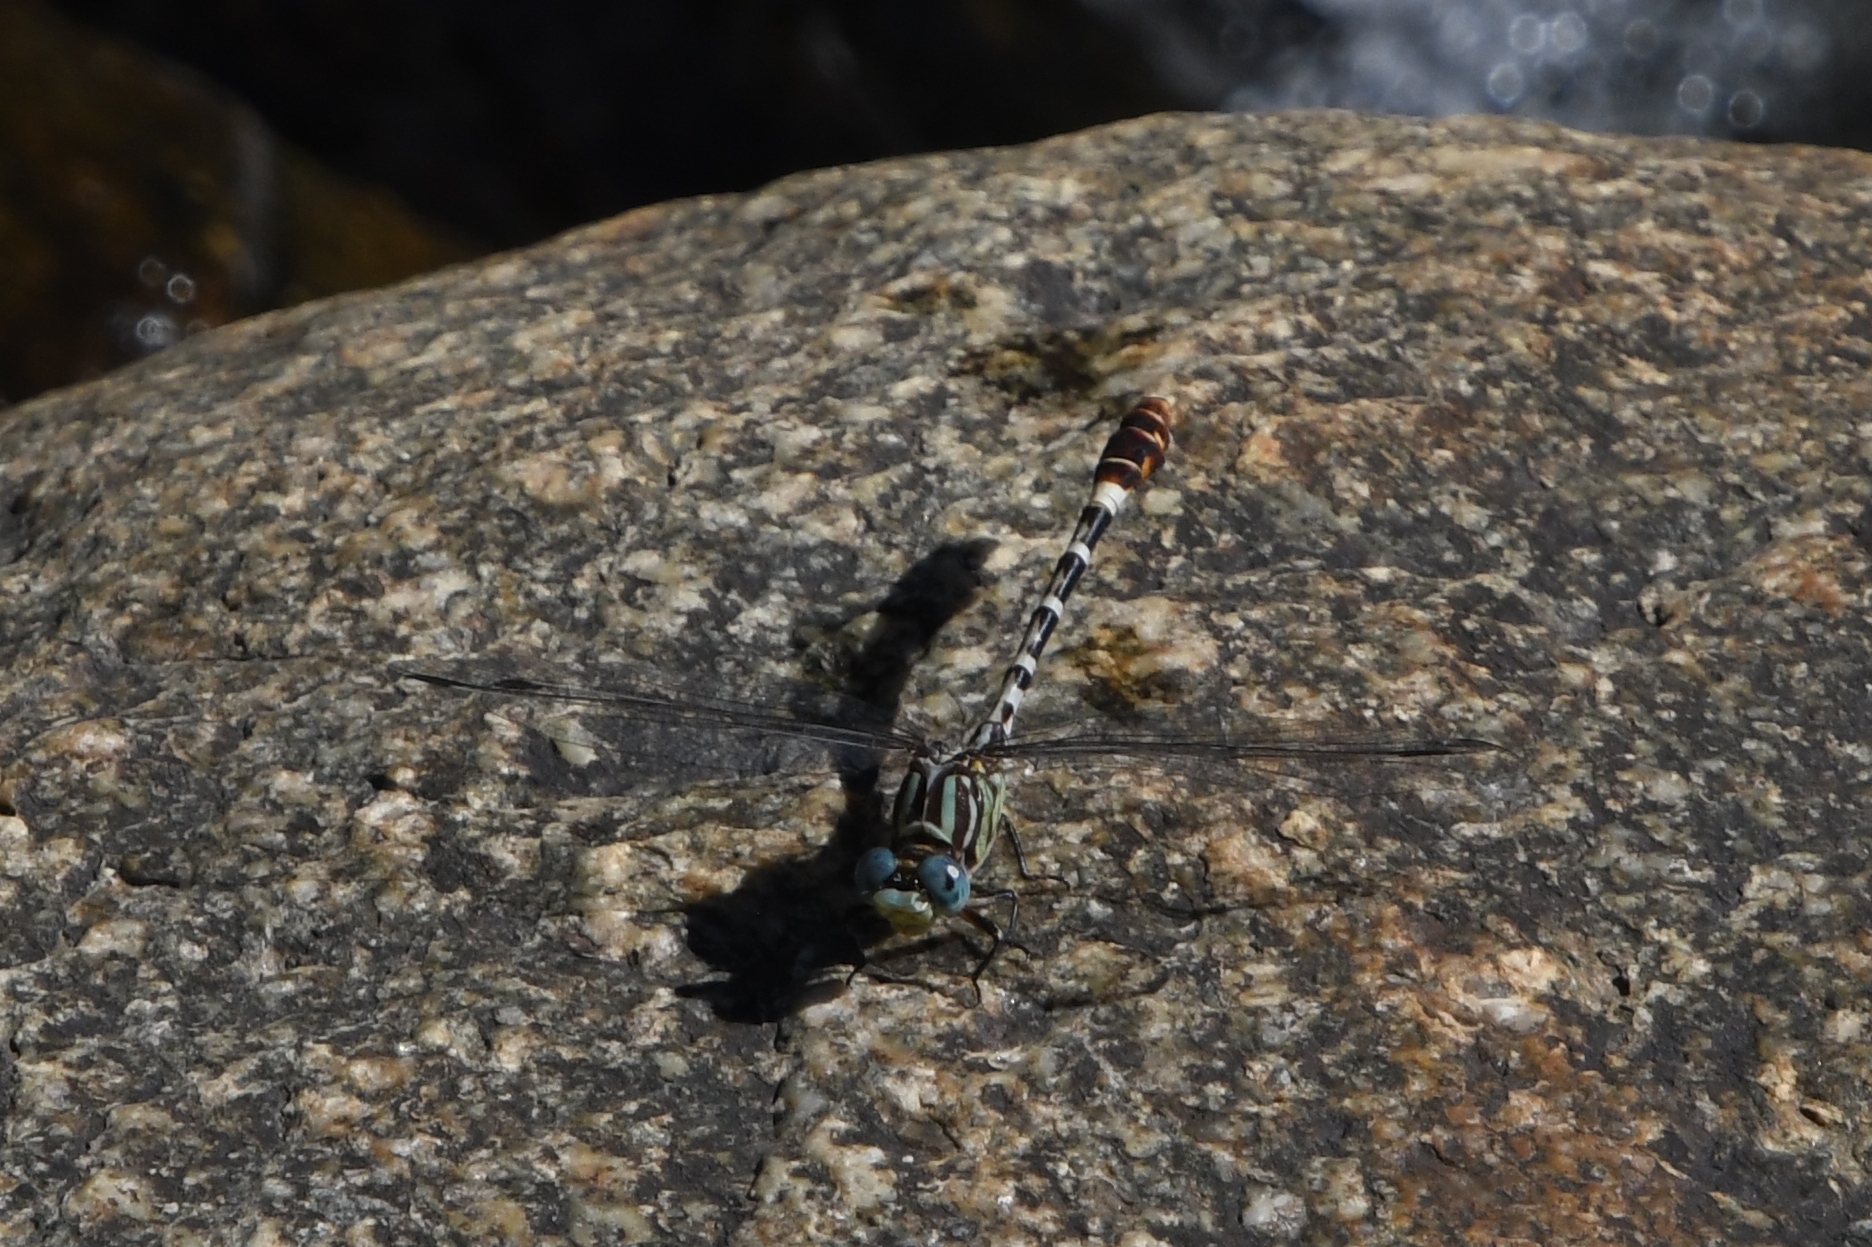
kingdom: Animalia
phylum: Arthropoda
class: Insecta
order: Odonata
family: Gomphidae
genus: Erpetogomphus
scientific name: Erpetogomphus lampropeltis
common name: Serpent ringtail
